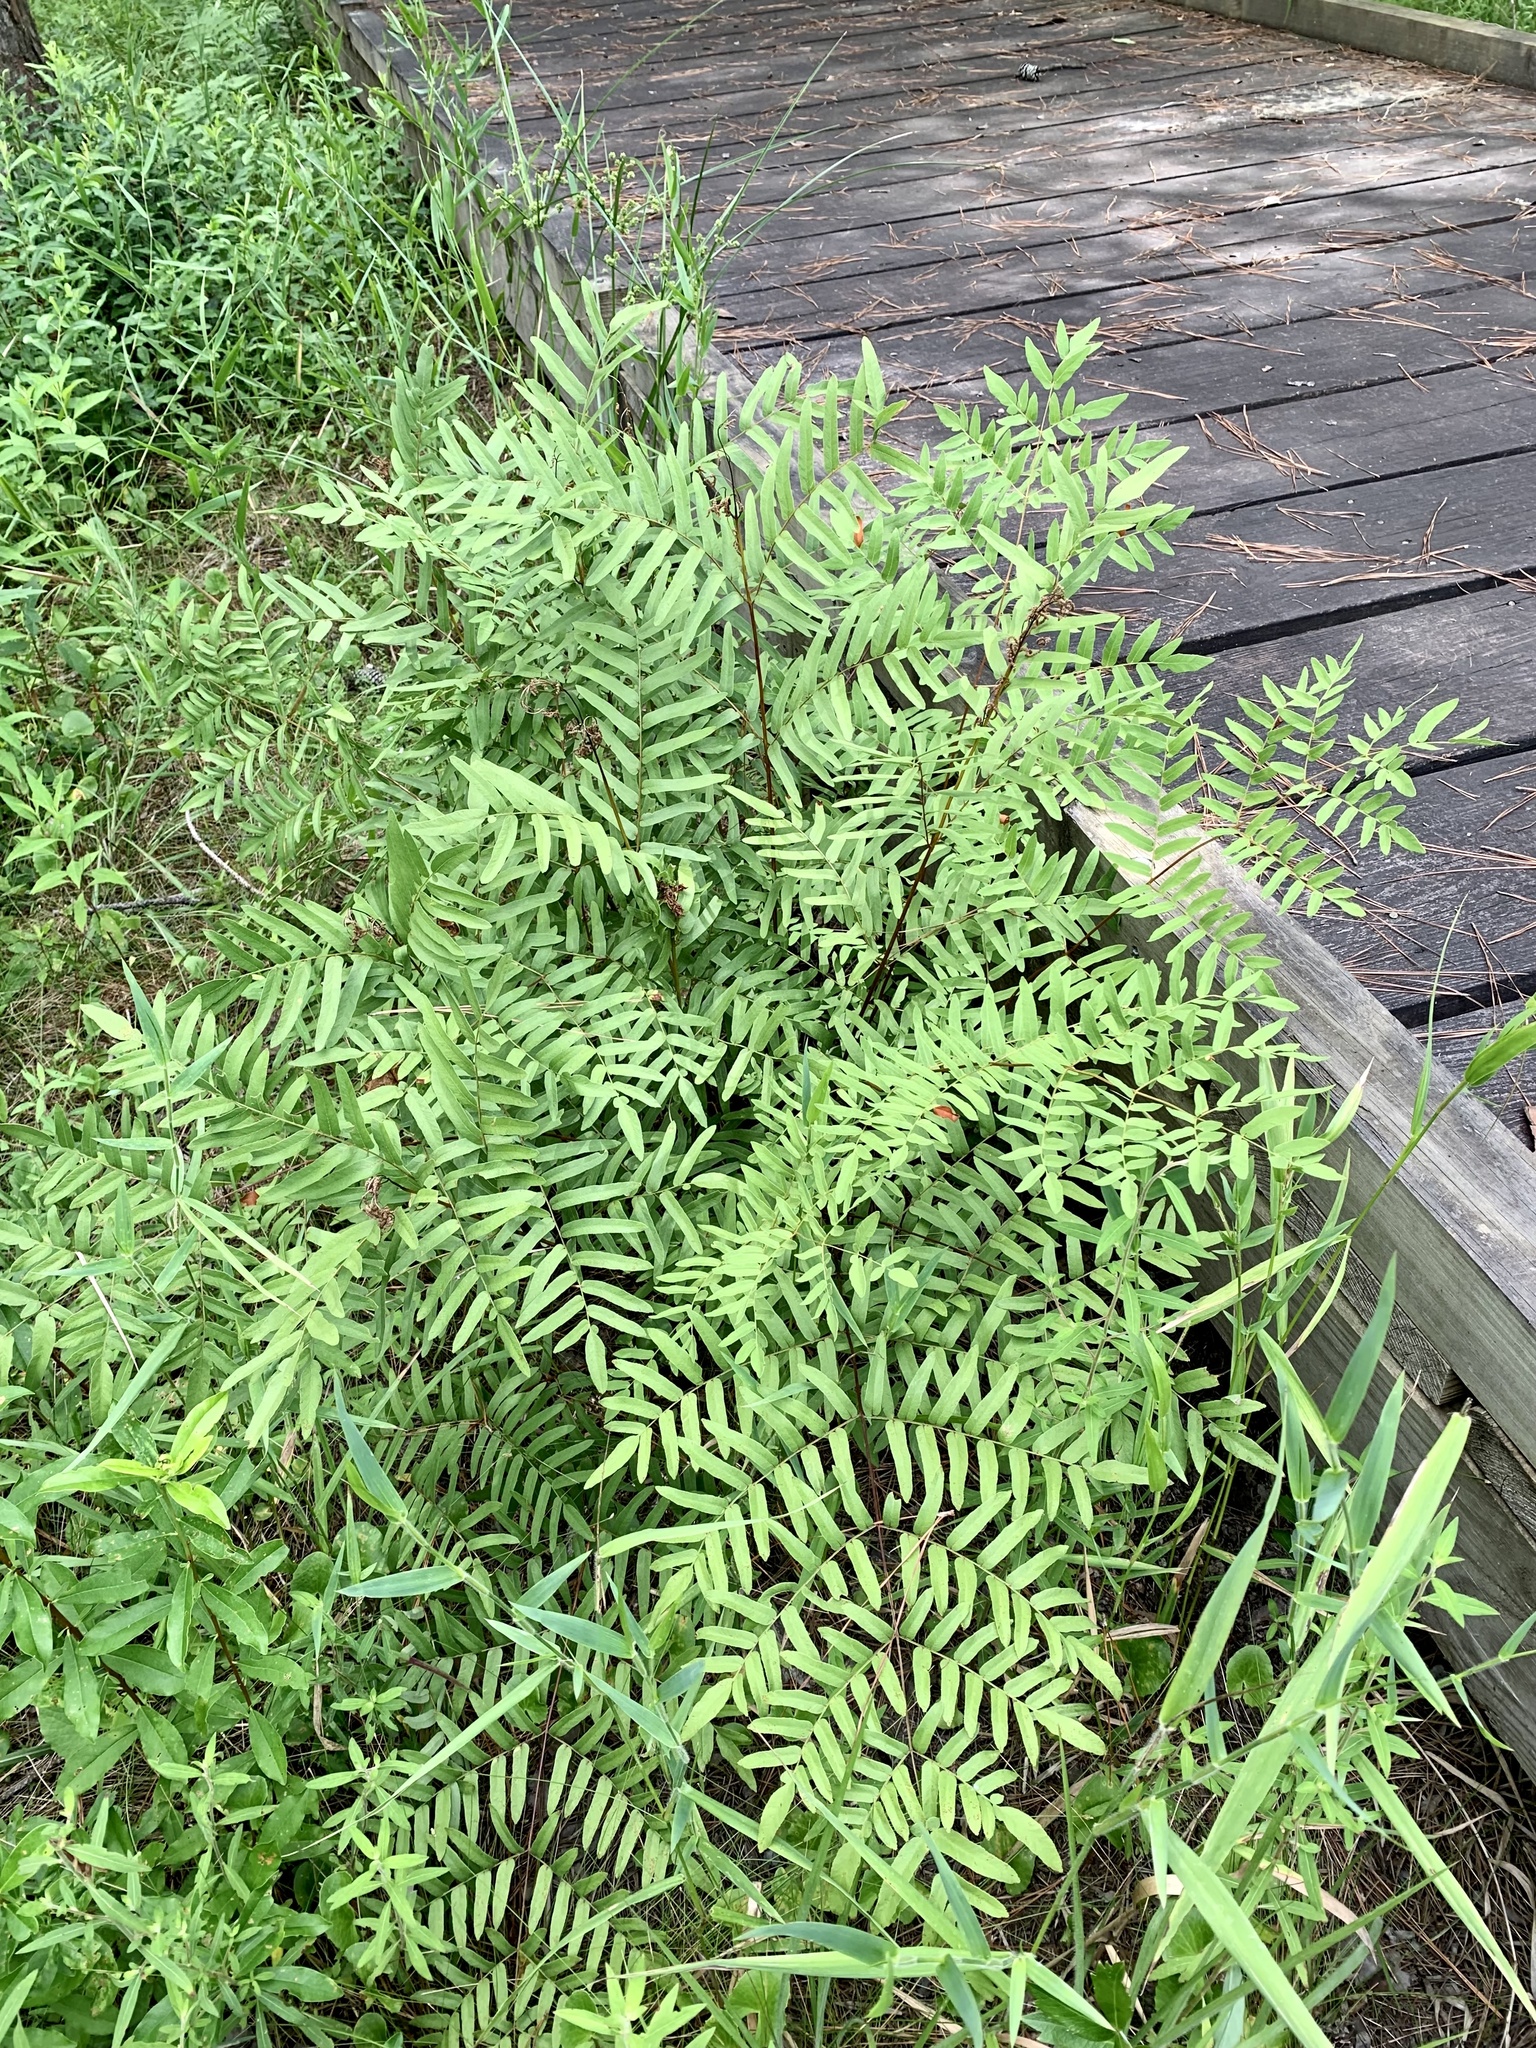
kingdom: Plantae
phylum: Tracheophyta
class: Polypodiopsida
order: Osmundales
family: Osmundaceae
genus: Osmunda
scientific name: Osmunda spectabilis
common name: American royal fern
